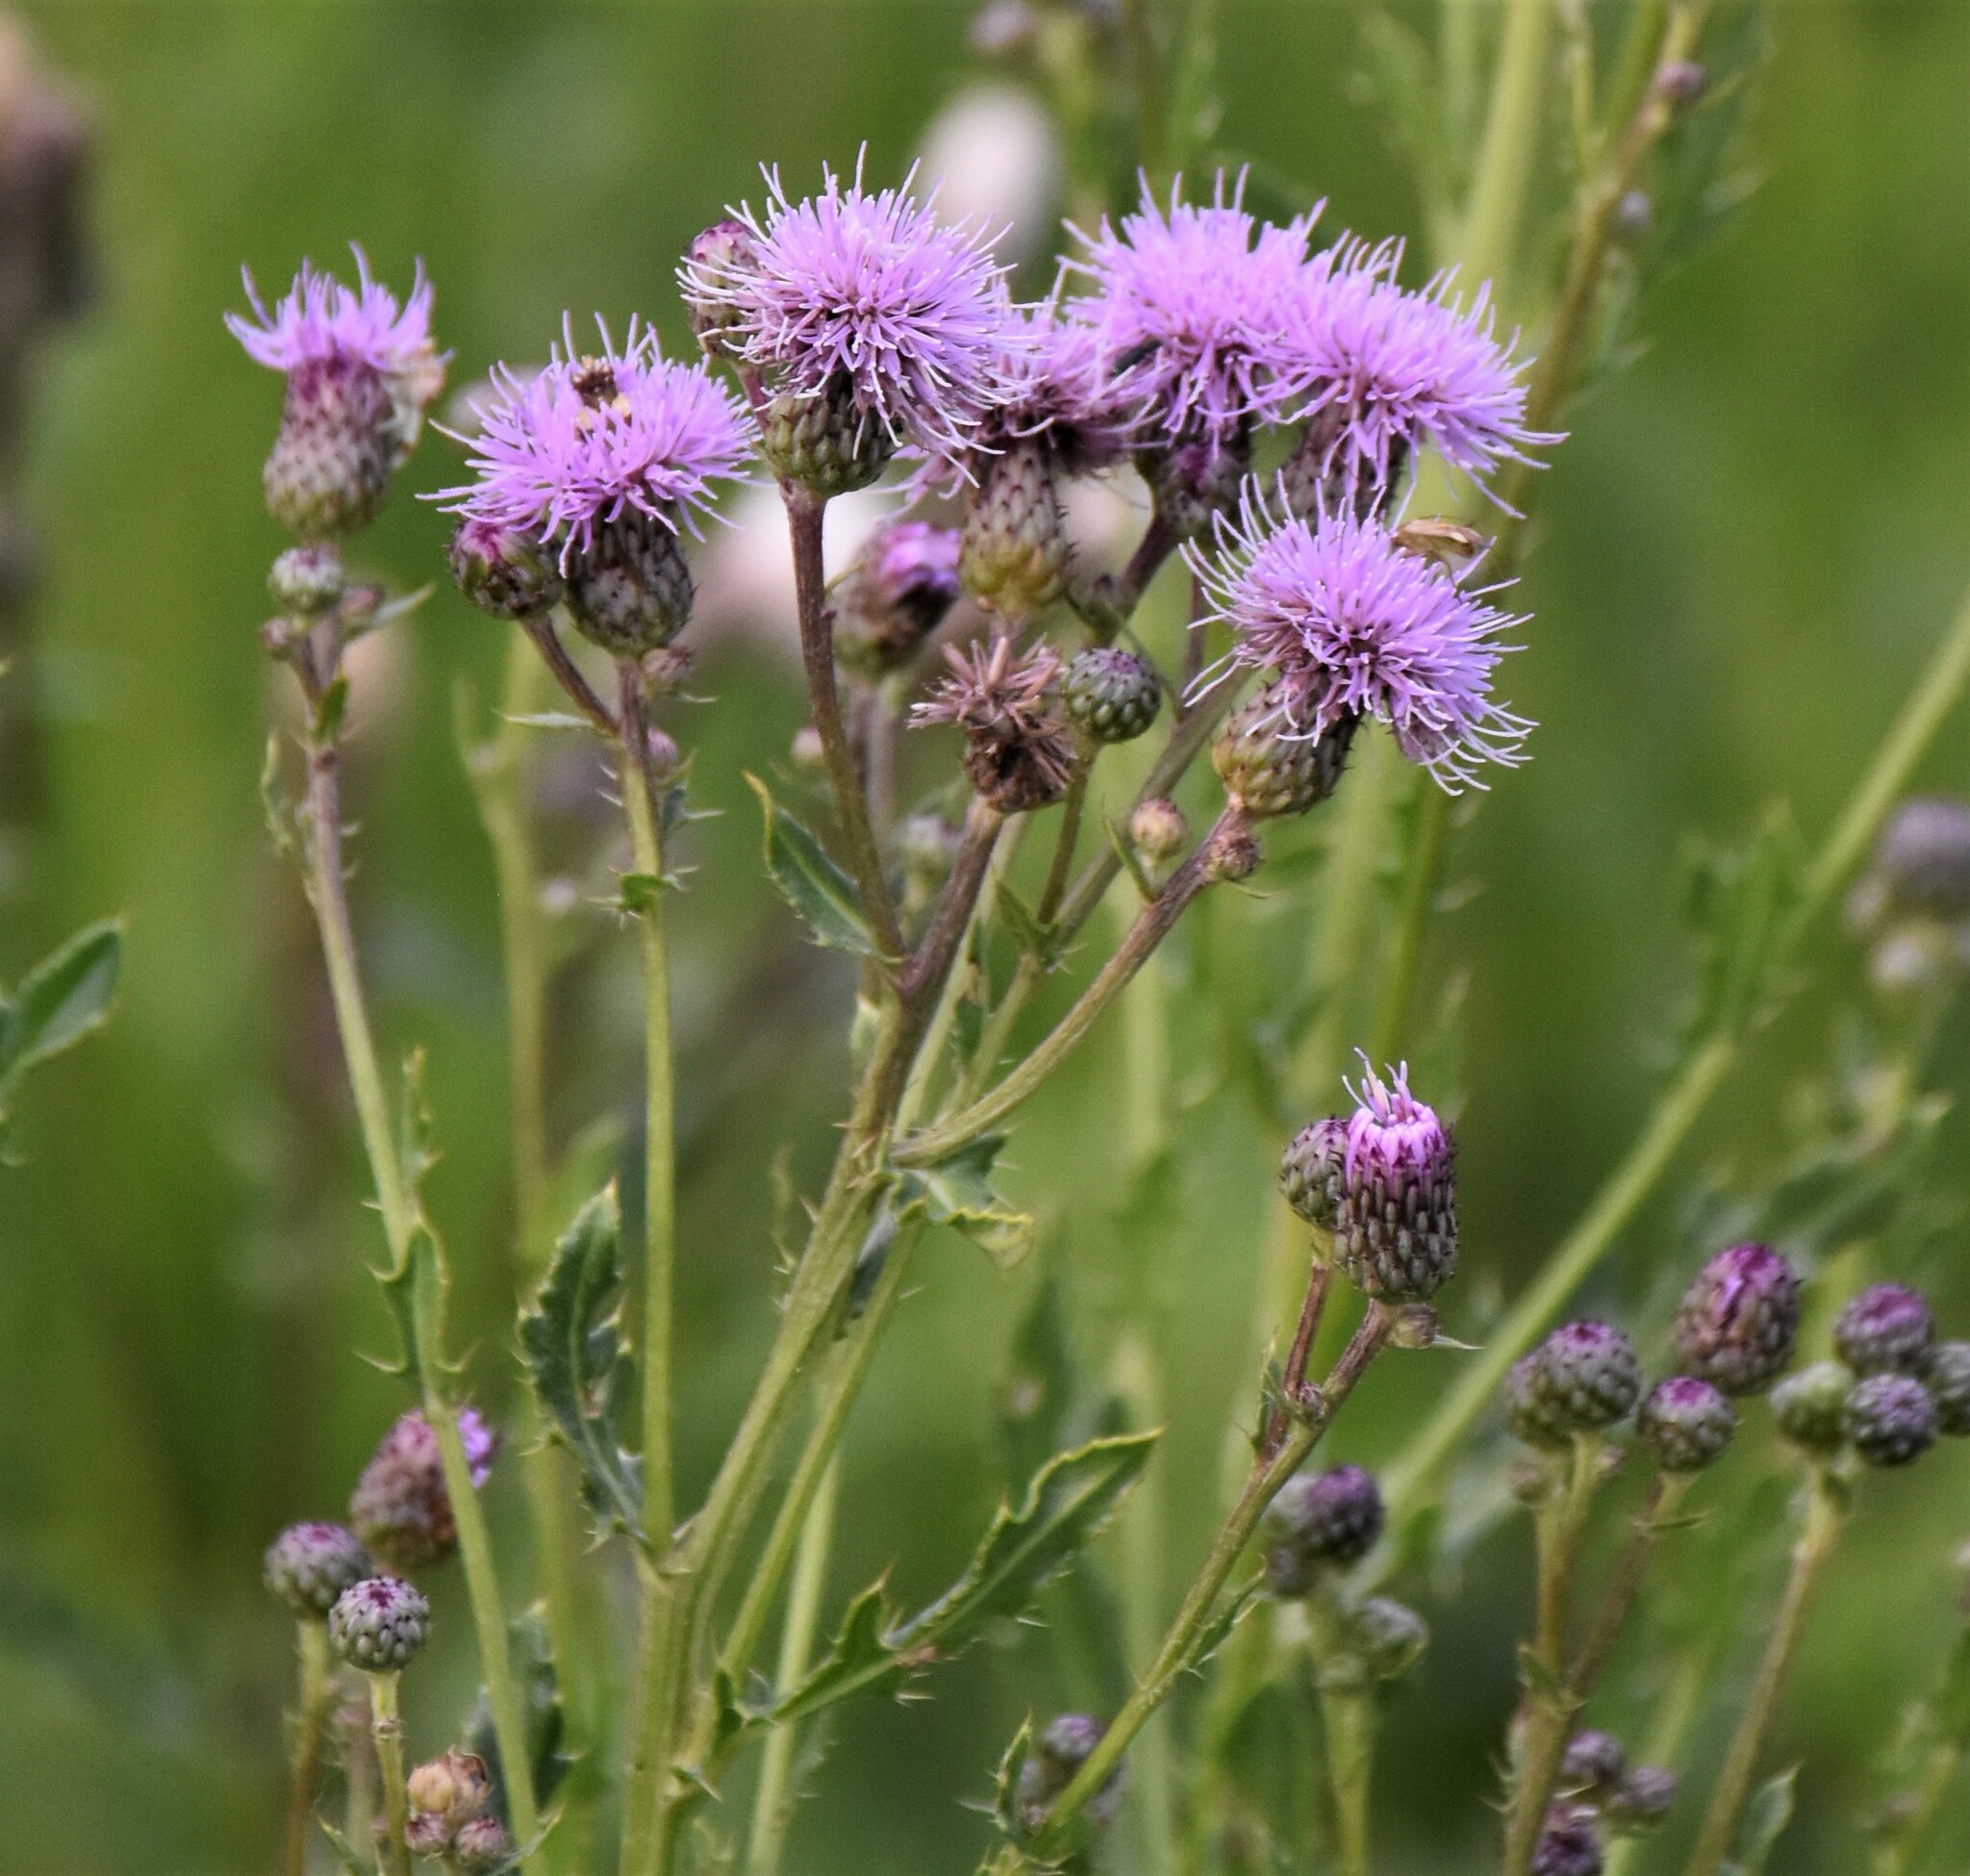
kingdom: Plantae
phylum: Tracheophyta
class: Magnoliopsida
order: Asterales
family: Asteraceae
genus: Cirsium
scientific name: Cirsium arvense
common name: Creeping thistle
